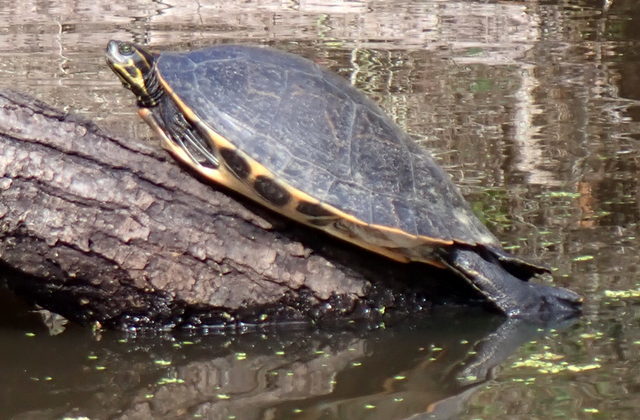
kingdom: Animalia
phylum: Chordata
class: Testudines
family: Emydidae
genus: Pseudemys
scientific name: Pseudemys concinna
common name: Eastern river cooter
